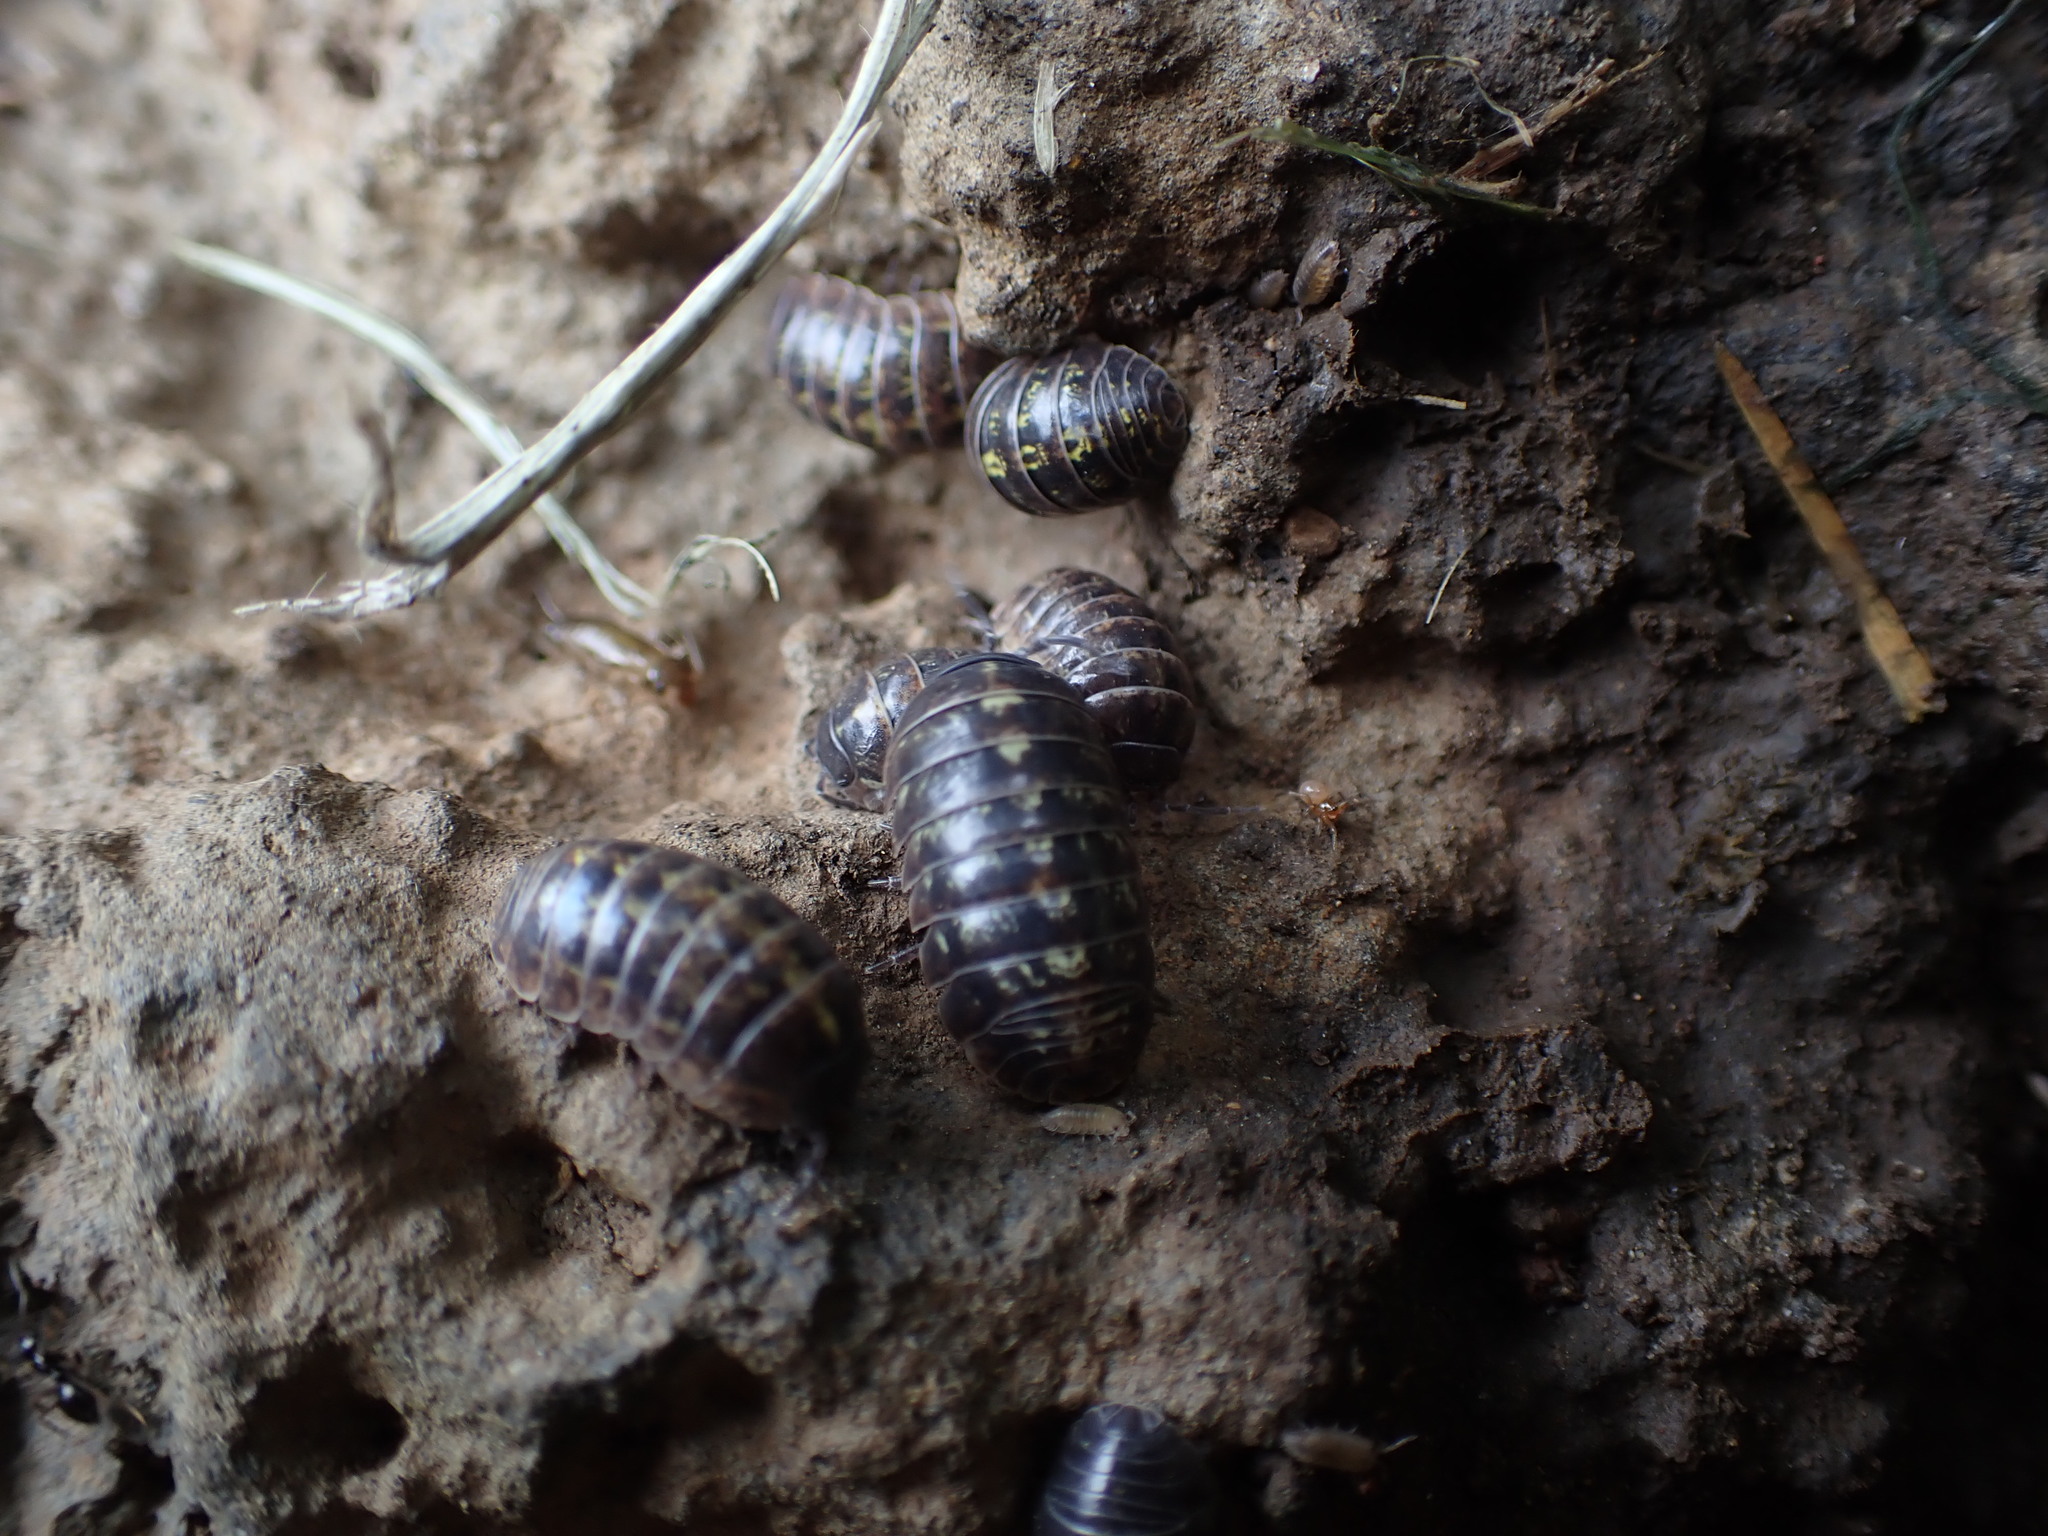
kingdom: Animalia
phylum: Arthropoda
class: Malacostraca
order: Isopoda
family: Armadillidiidae
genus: Armadillidium
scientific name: Armadillidium vulgare
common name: Common pill woodlouse
